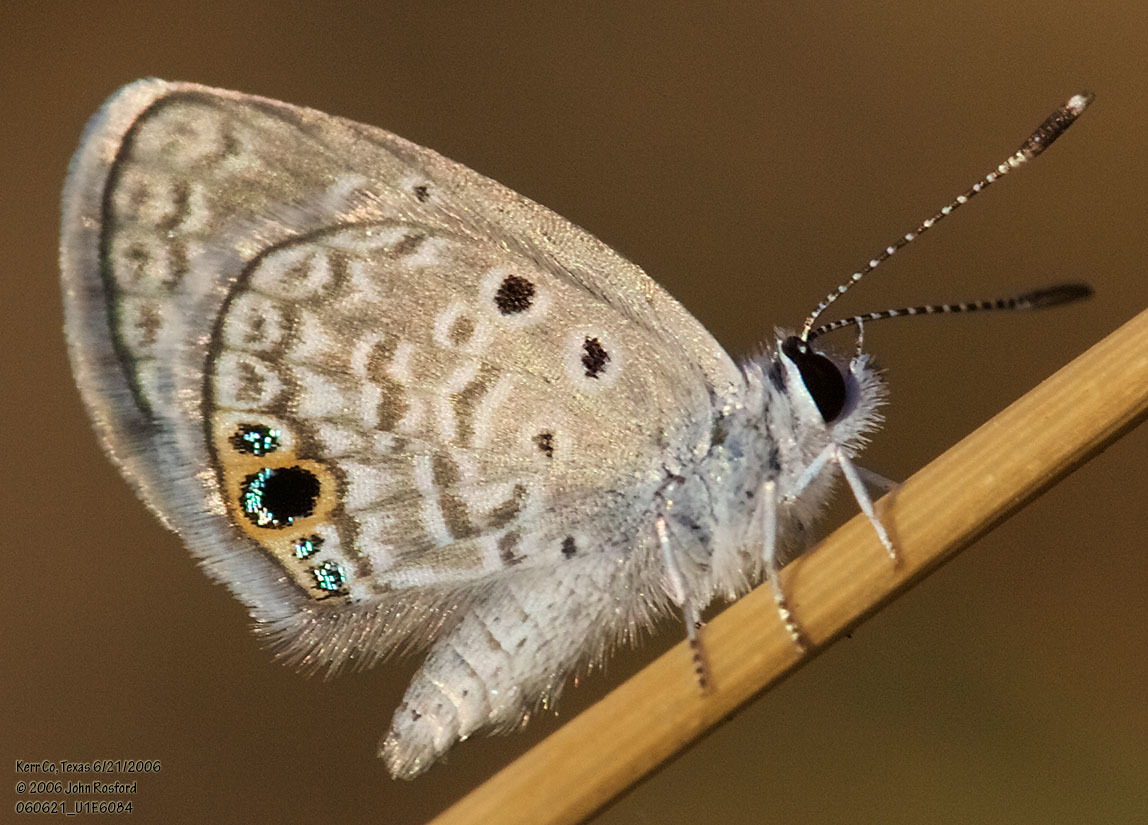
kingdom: Animalia
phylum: Arthropoda
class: Insecta
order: Lepidoptera
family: Lycaenidae
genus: Hemiargus
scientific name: Hemiargus ceraunus
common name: Ceraunus blue
